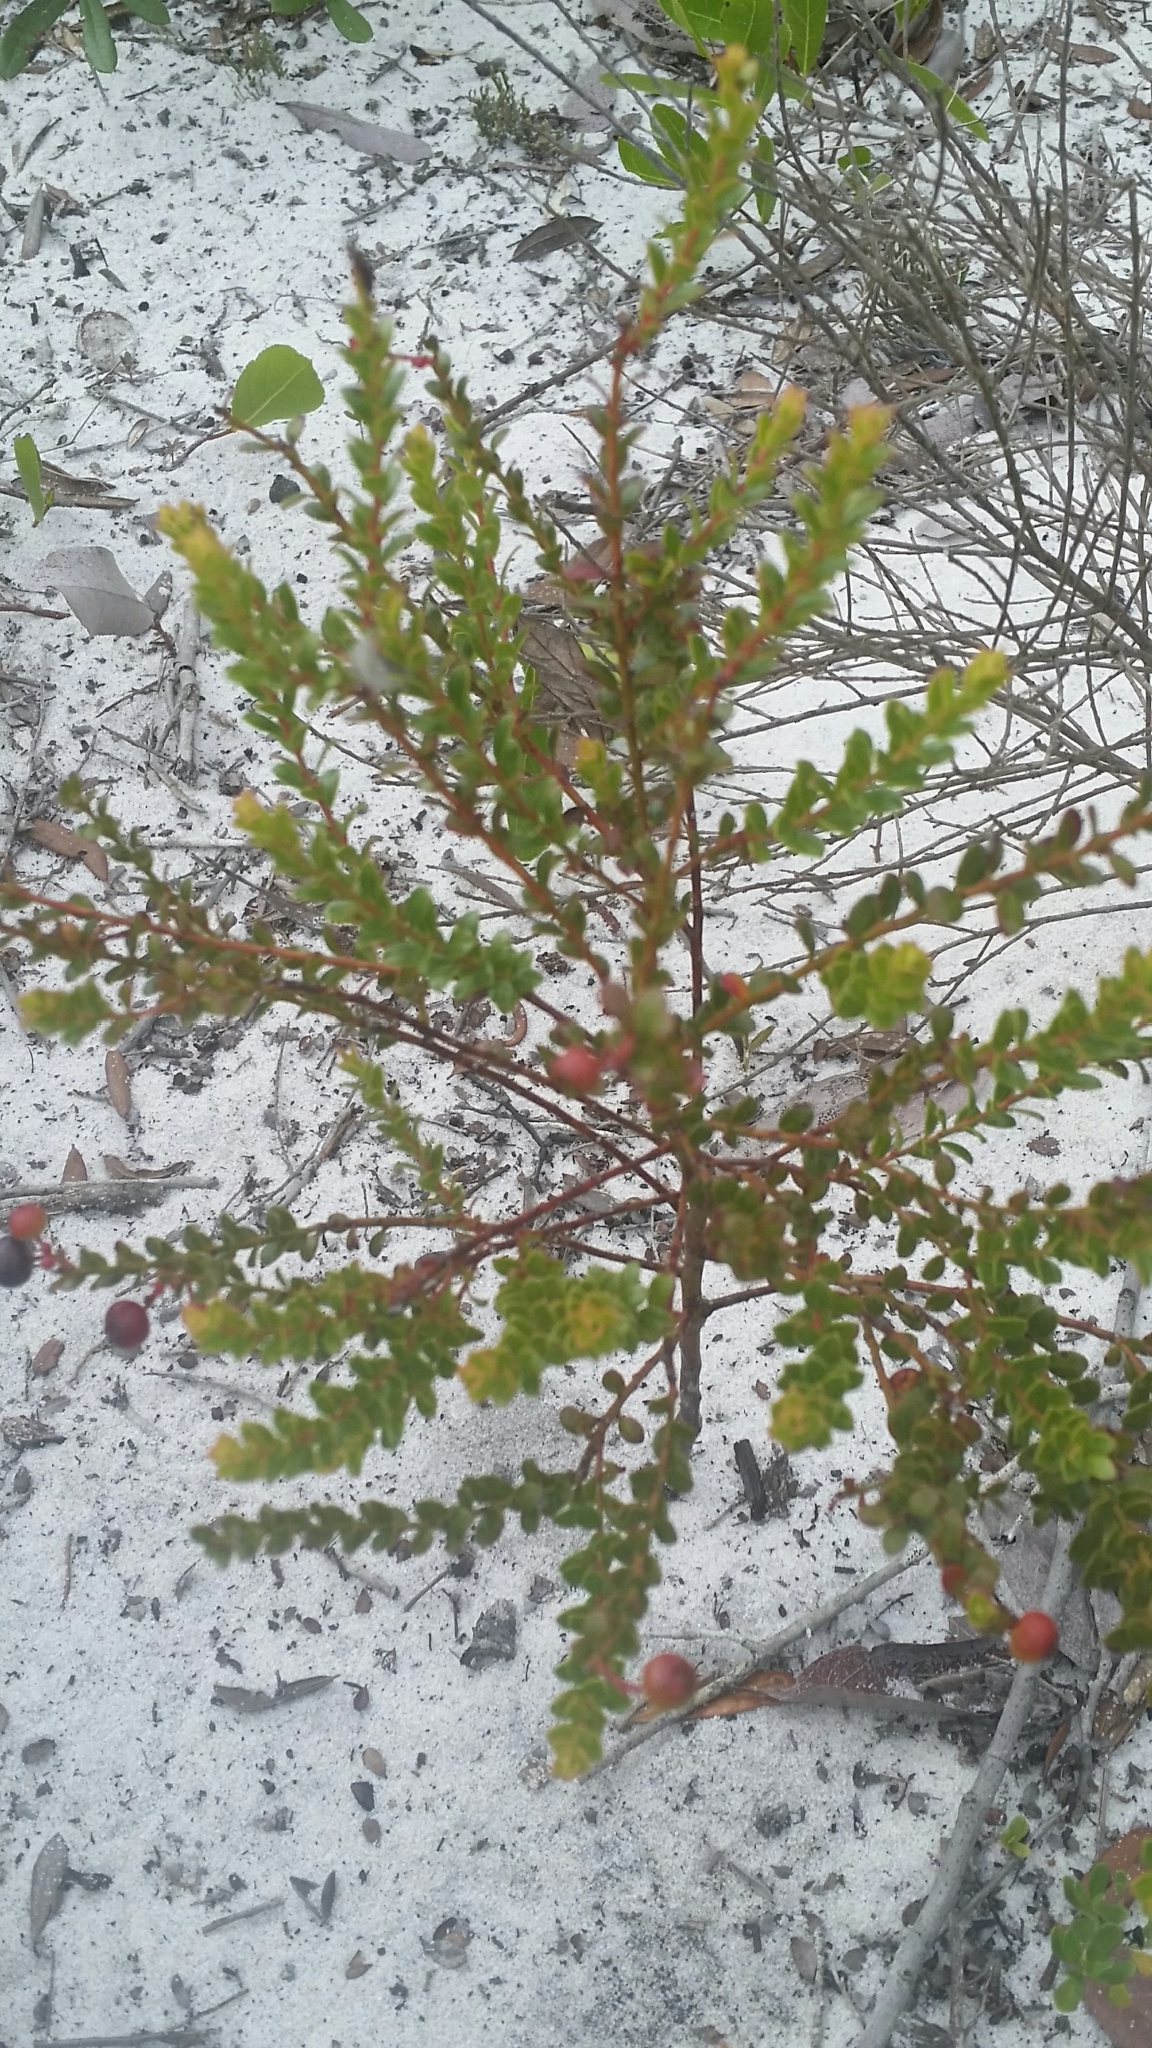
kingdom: Plantae
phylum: Tracheophyta
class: Magnoliopsida
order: Ericales
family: Ericaceae
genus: Vaccinium
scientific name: Vaccinium myrsinites
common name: Evergreen blueberry
